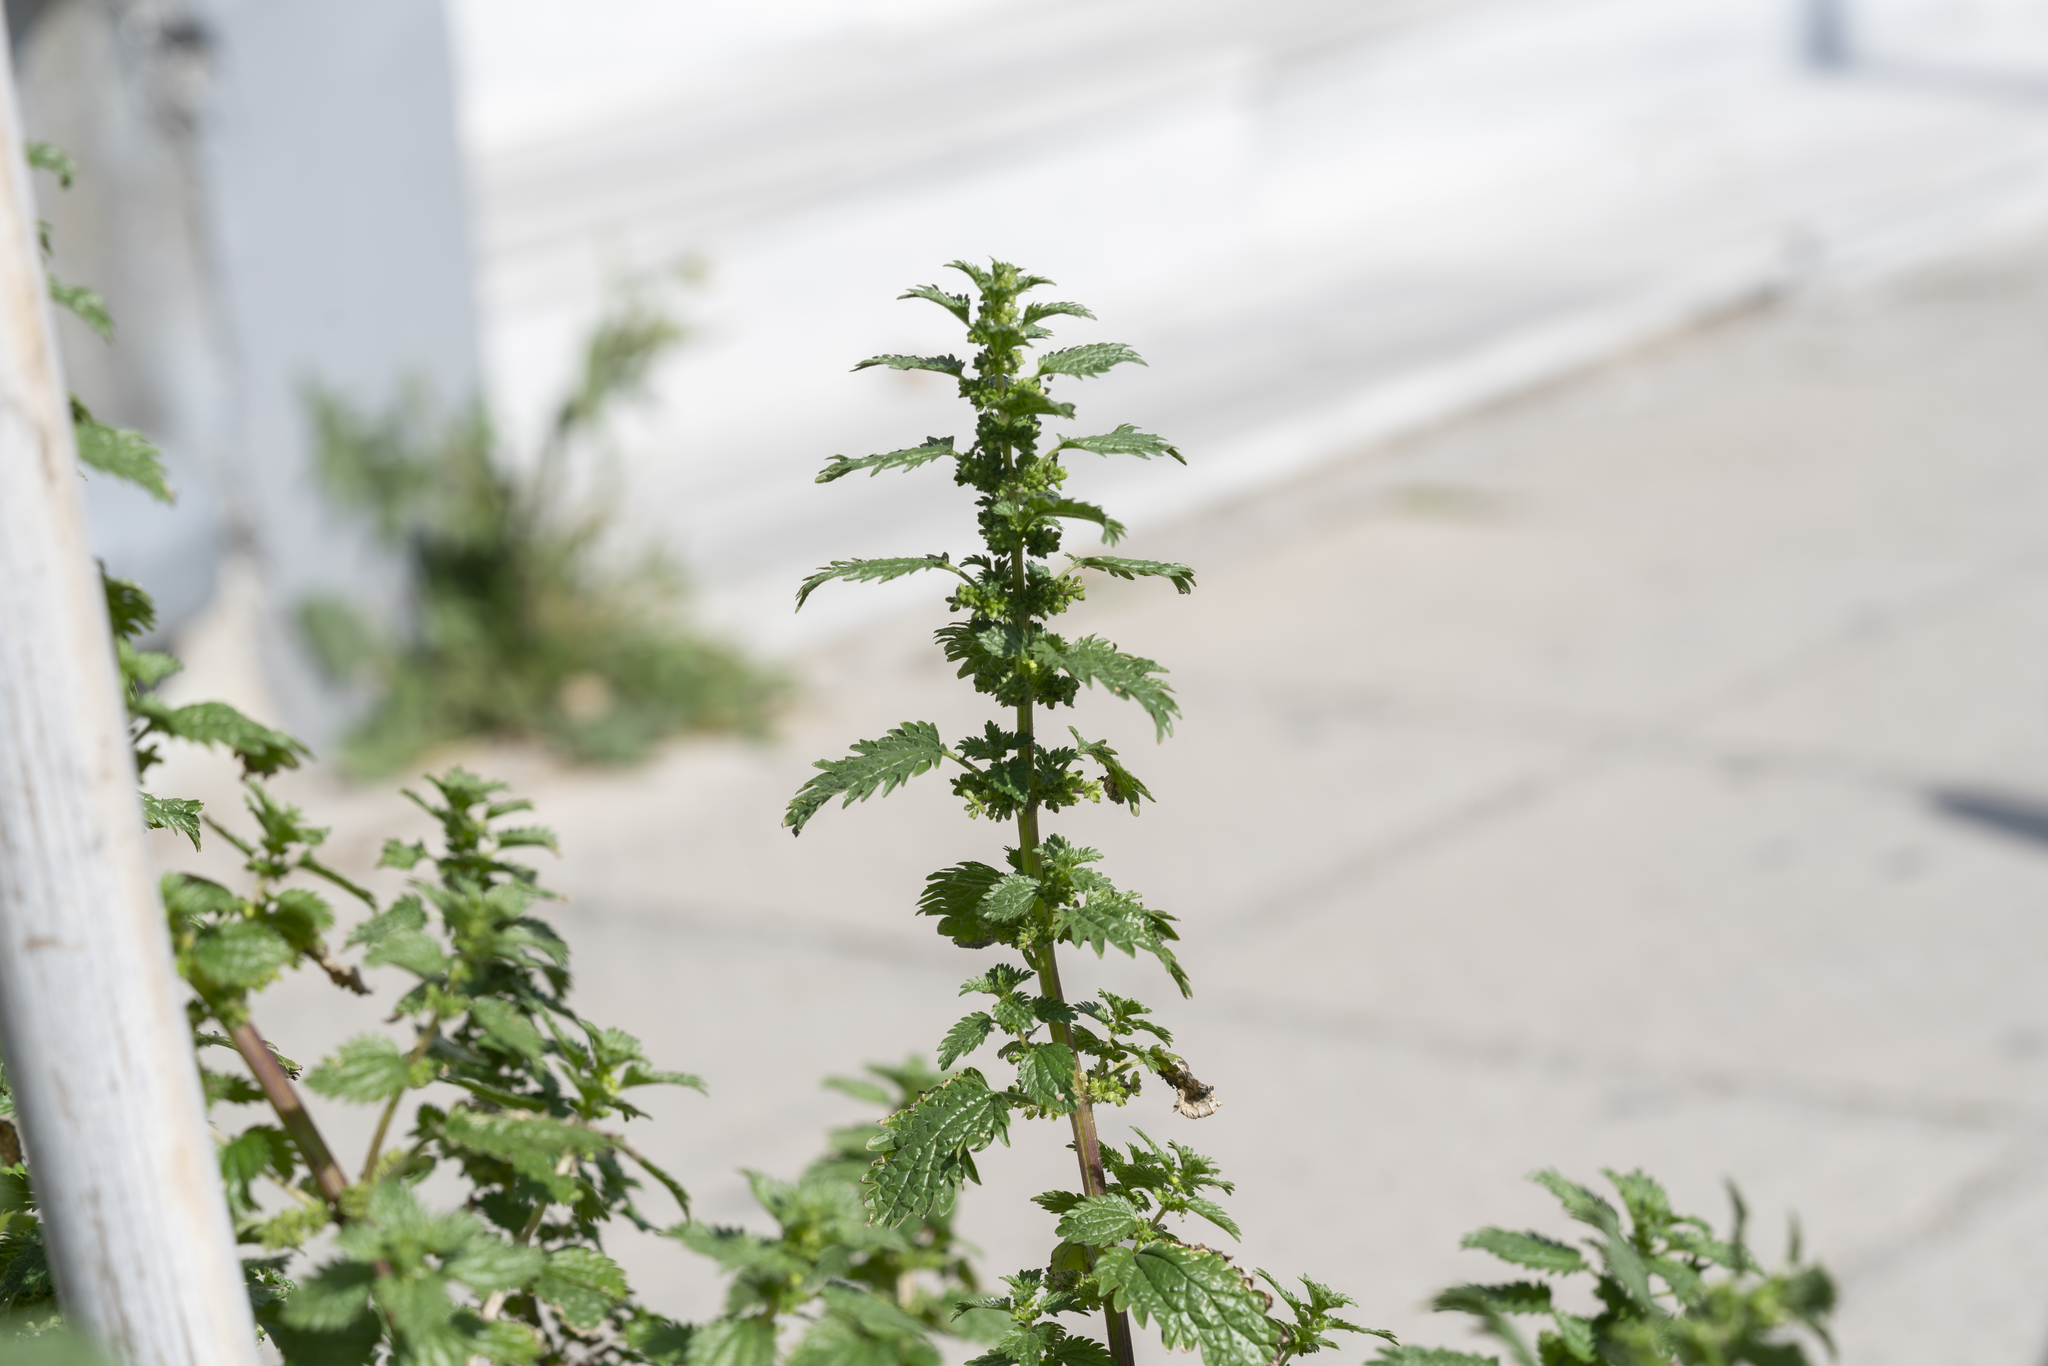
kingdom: Plantae
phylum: Tracheophyta
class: Magnoliopsida
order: Rosales
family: Urticaceae
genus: Urtica
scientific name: Urtica urens
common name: Dwarf nettle
